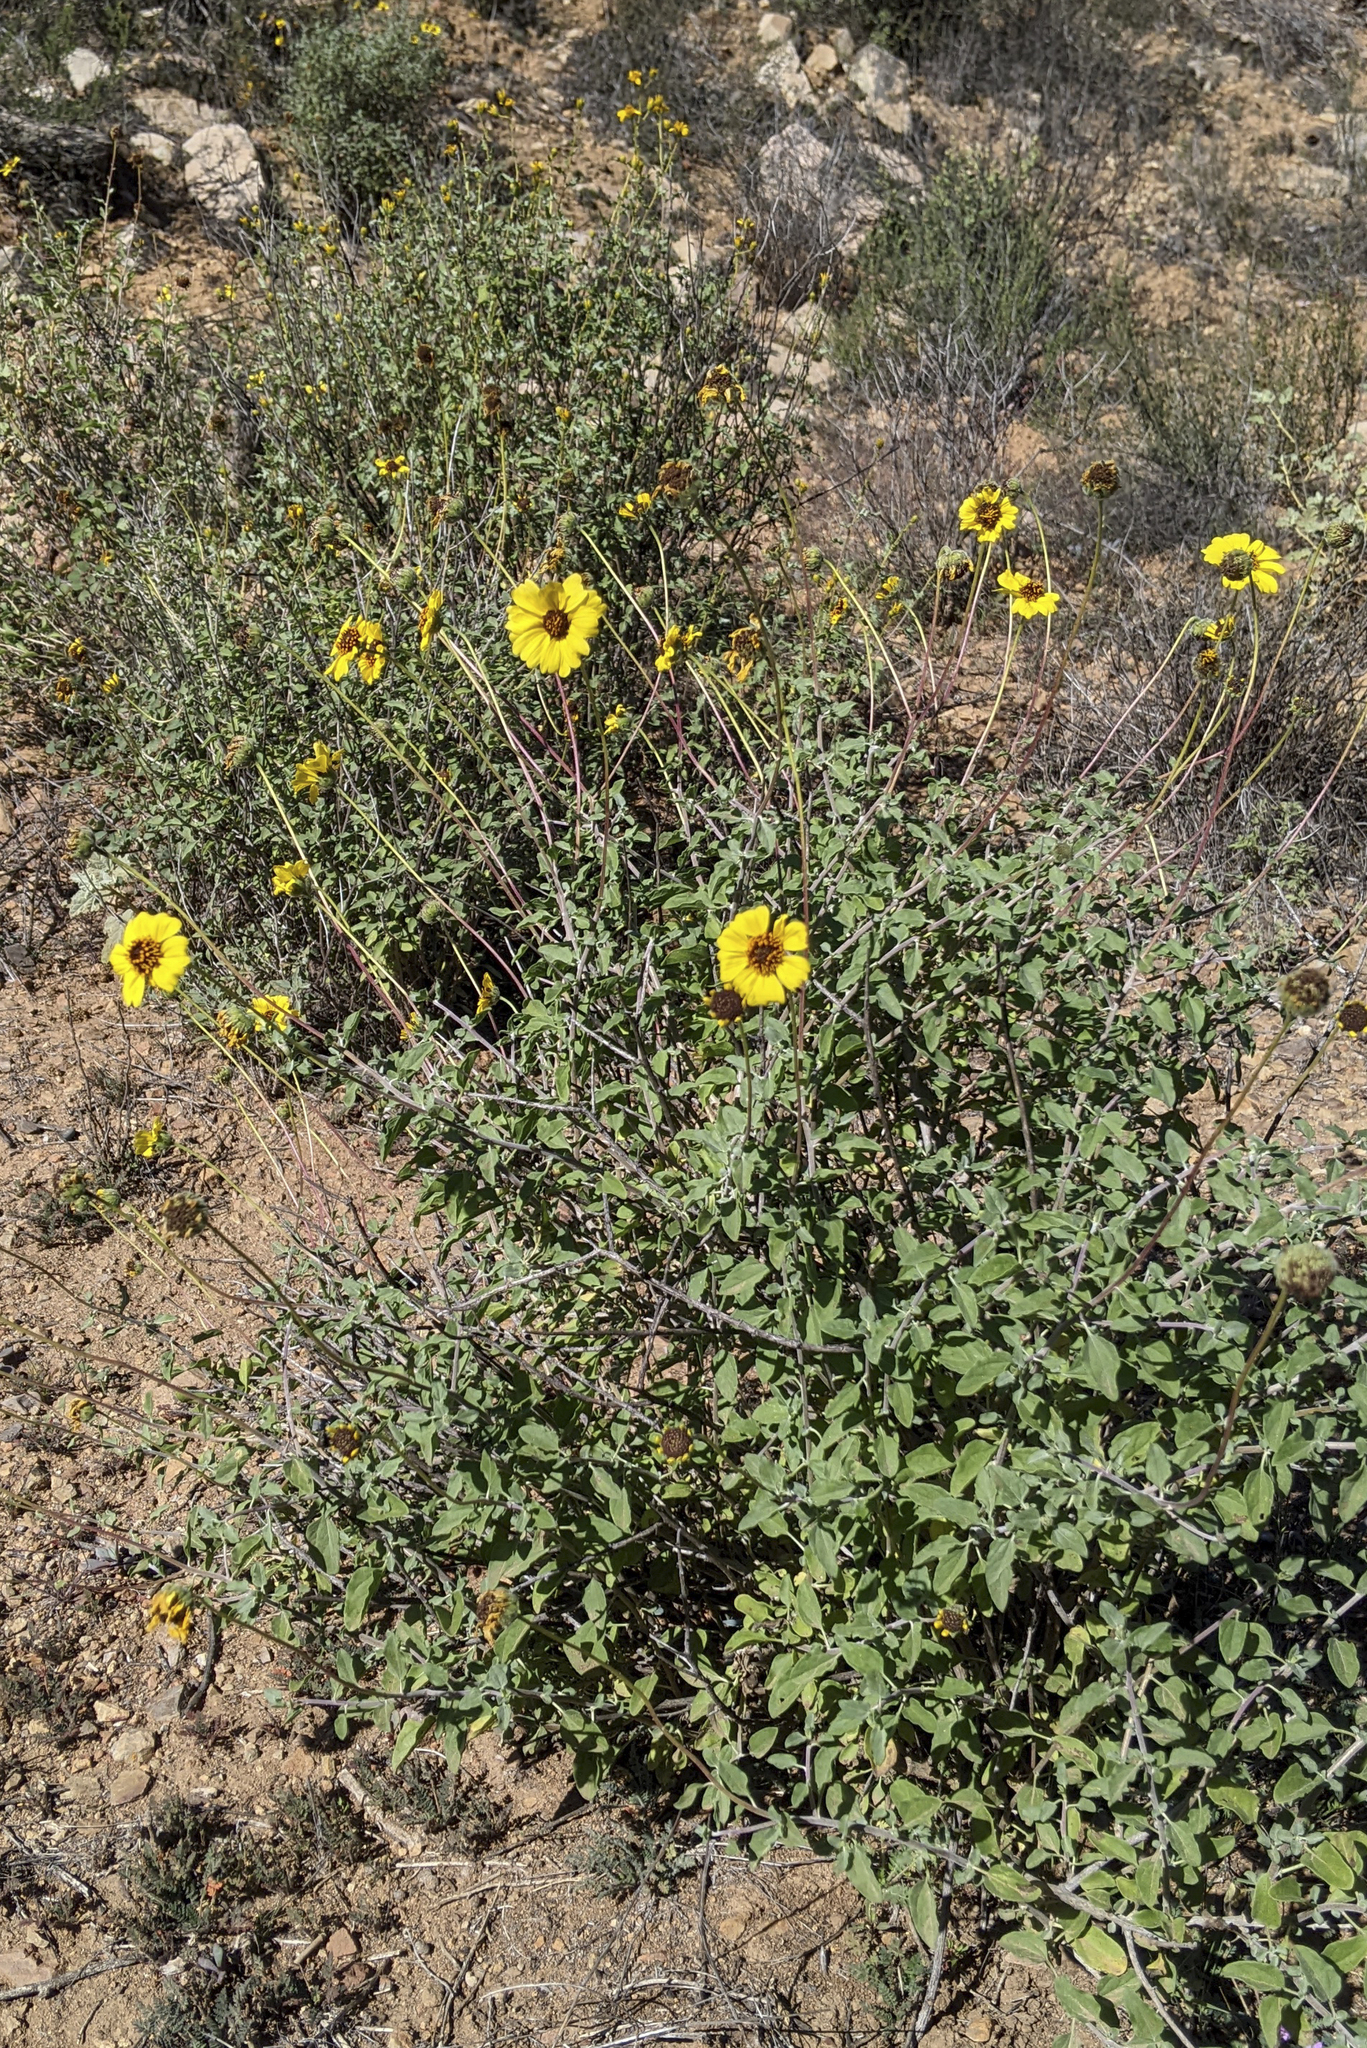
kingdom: Plantae
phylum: Tracheophyta
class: Magnoliopsida
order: Asterales
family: Asteraceae
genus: Encelia
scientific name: Encelia asperifolia
